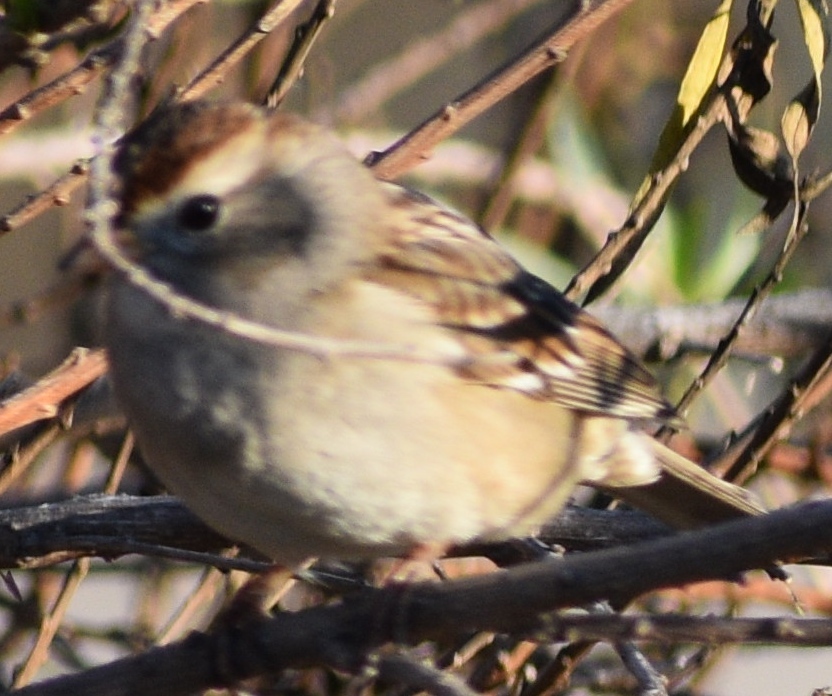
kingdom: Animalia
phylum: Chordata
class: Aves
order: Passeriformes
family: Passerellidae
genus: Zonotrichia
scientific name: Zonotrichia leucophrys
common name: White-crowned sparrow
